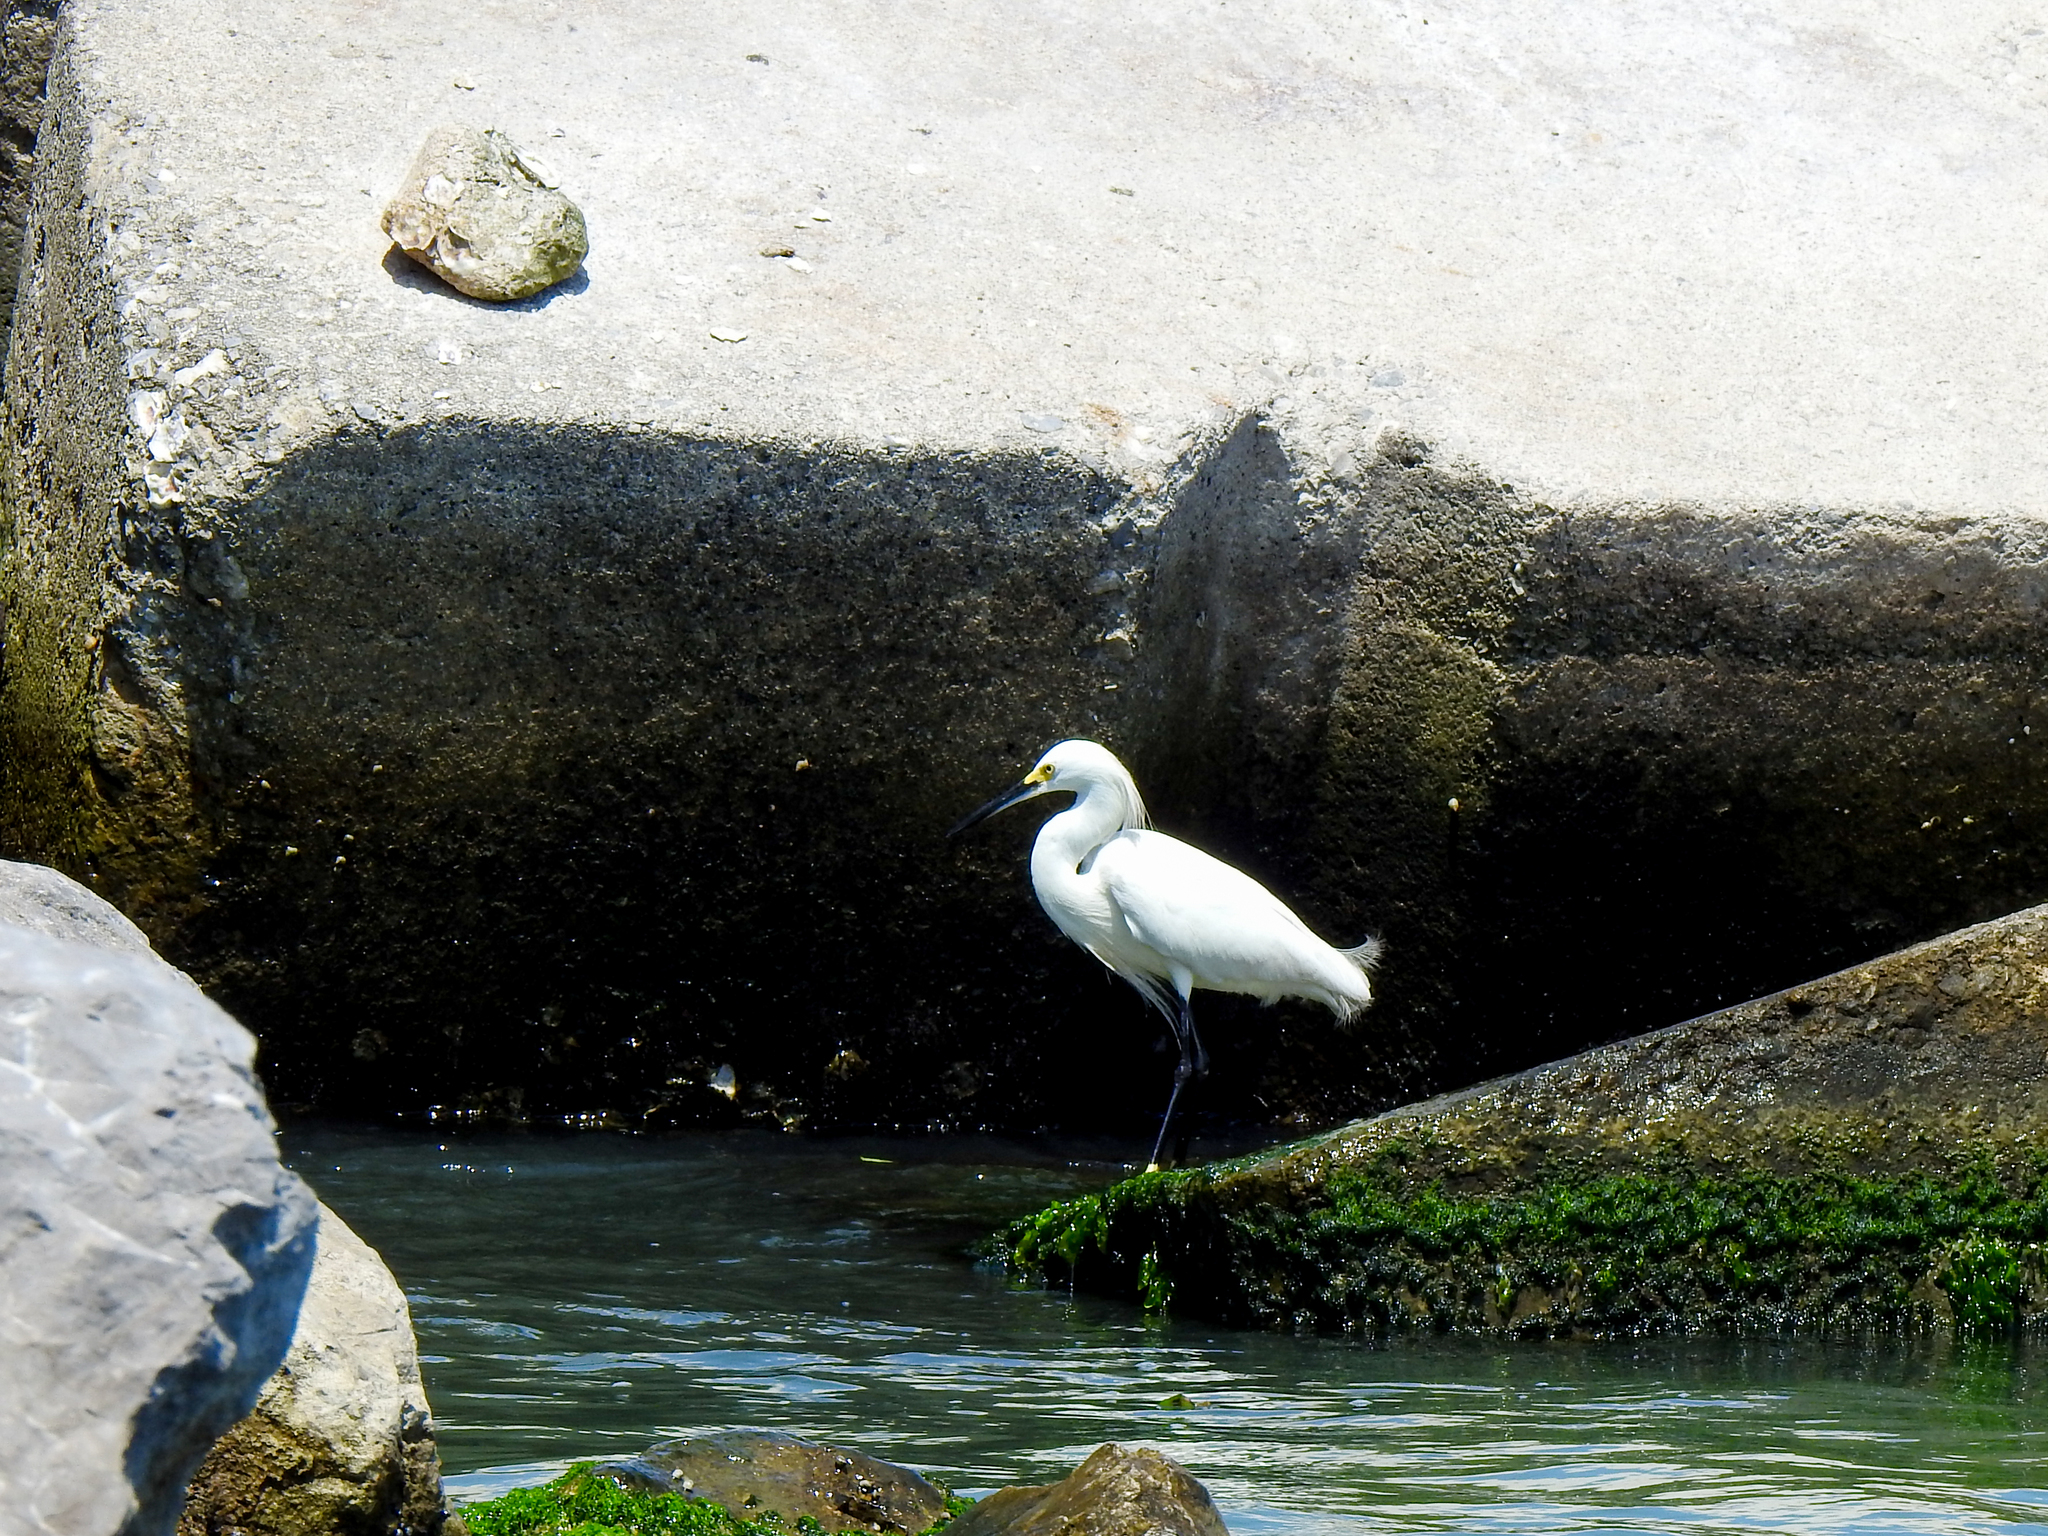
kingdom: Animalia
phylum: Chordata
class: Aves
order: Pelecaniformes
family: Ardeidae
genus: Egretta
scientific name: Egretta thula
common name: Snowy egret
